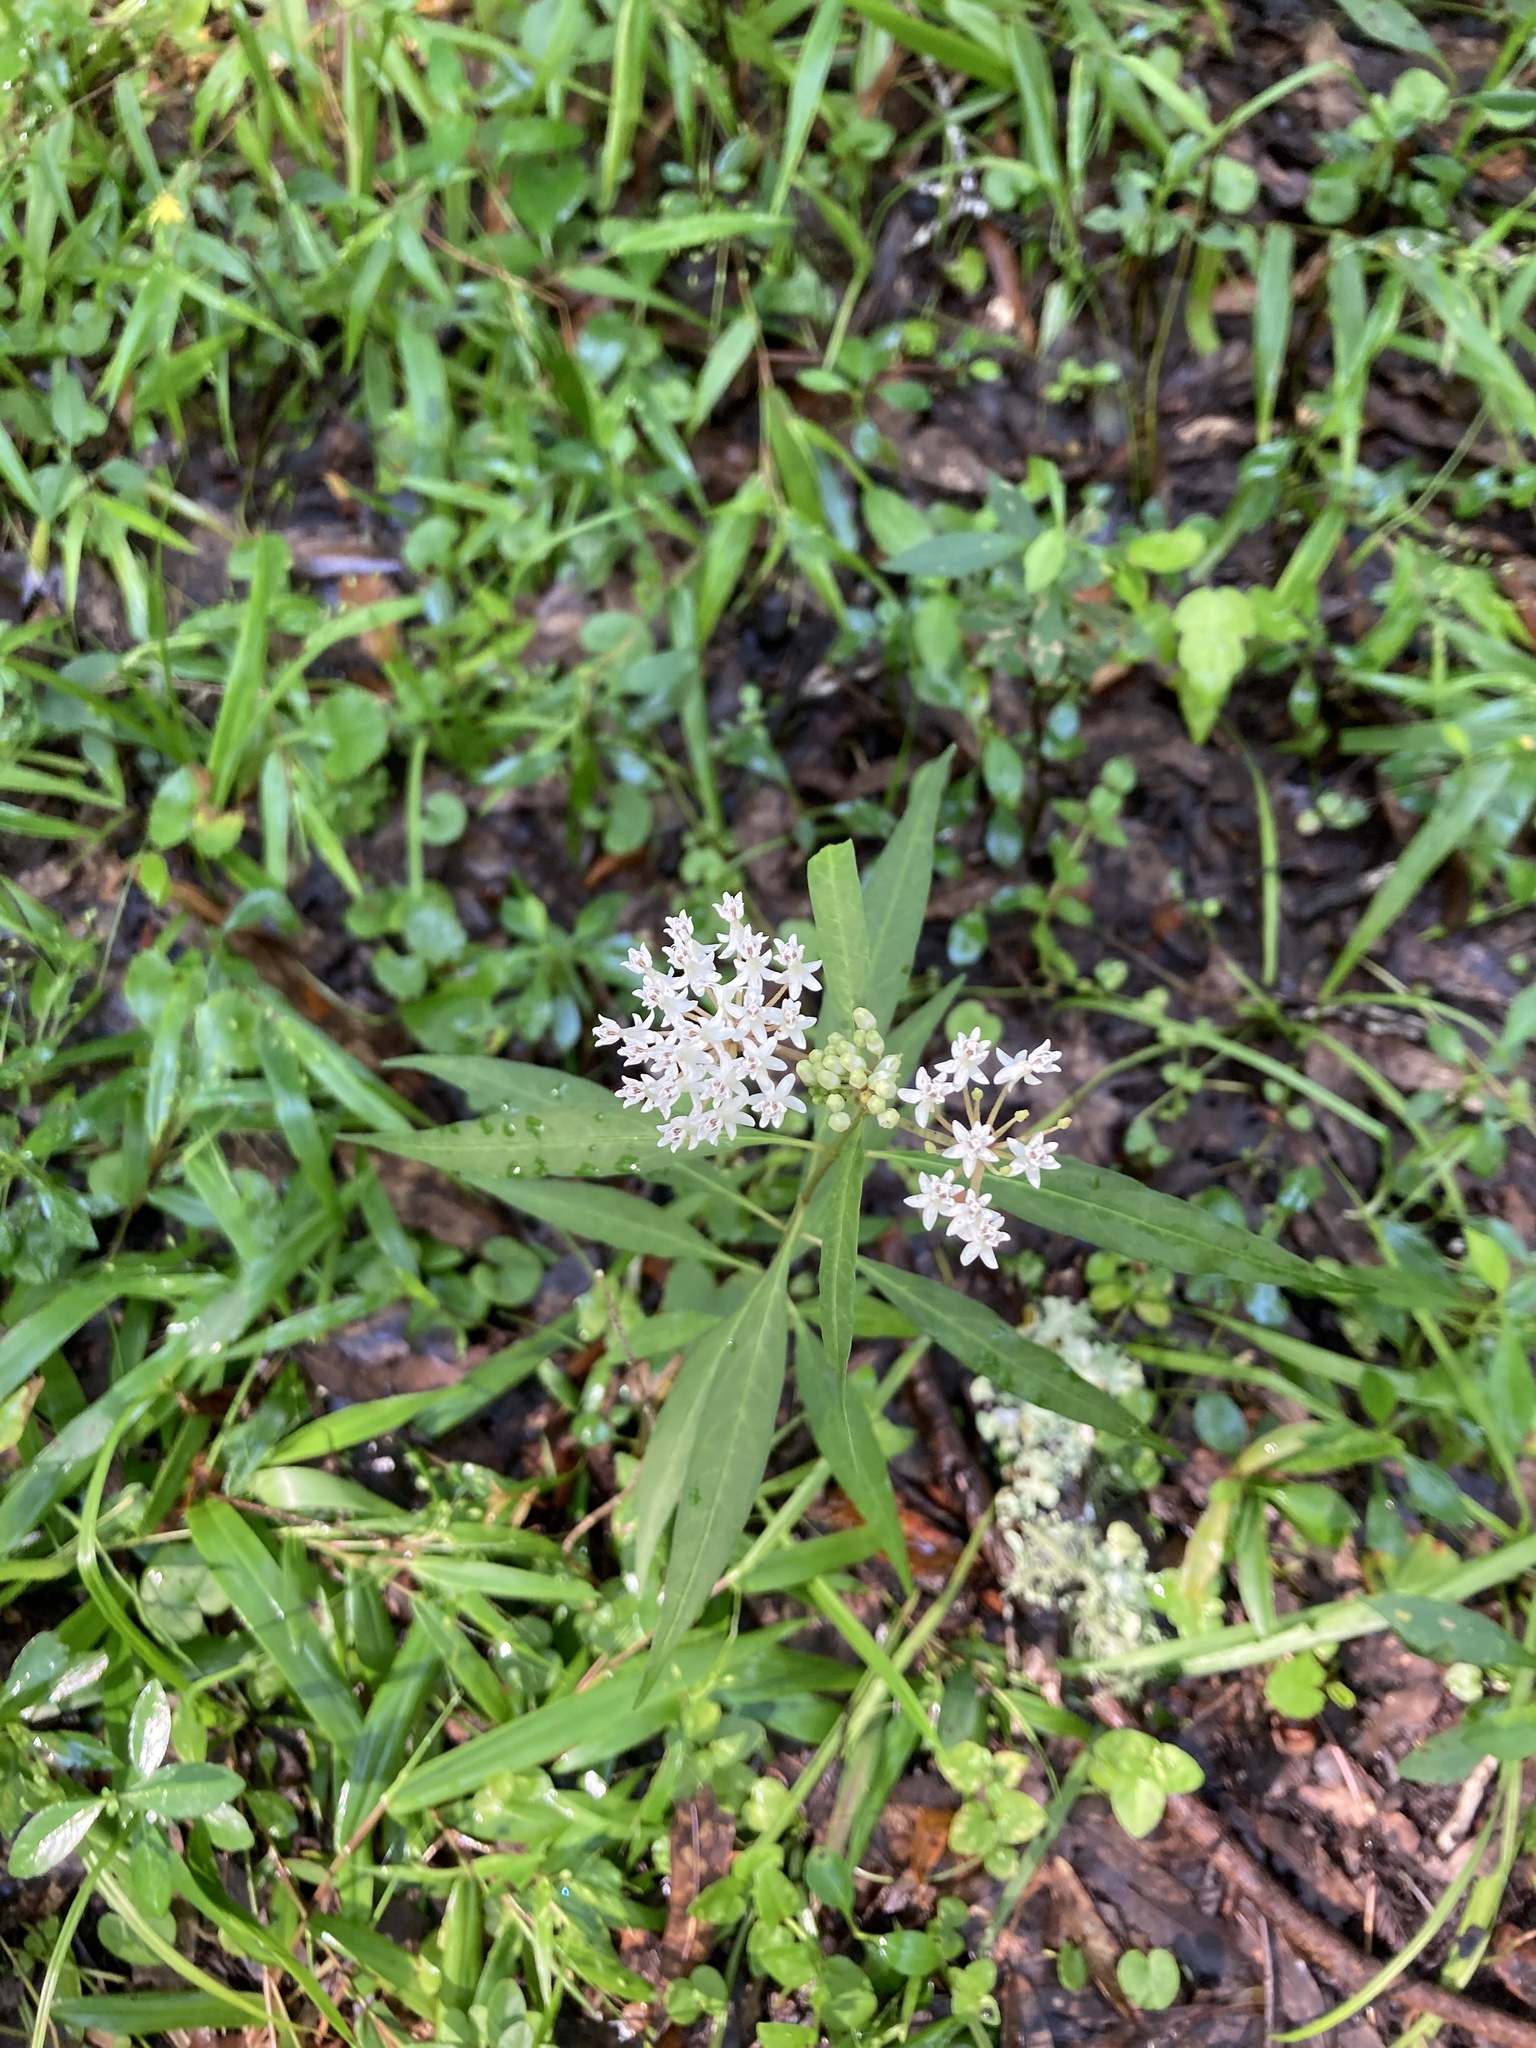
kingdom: Plantae
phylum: Tracheophyta
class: Magnoliopsida
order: Gentianales
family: Apocynaceae
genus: Asclepias
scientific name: Asclepias perennis
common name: Smooth-seed milkweed
